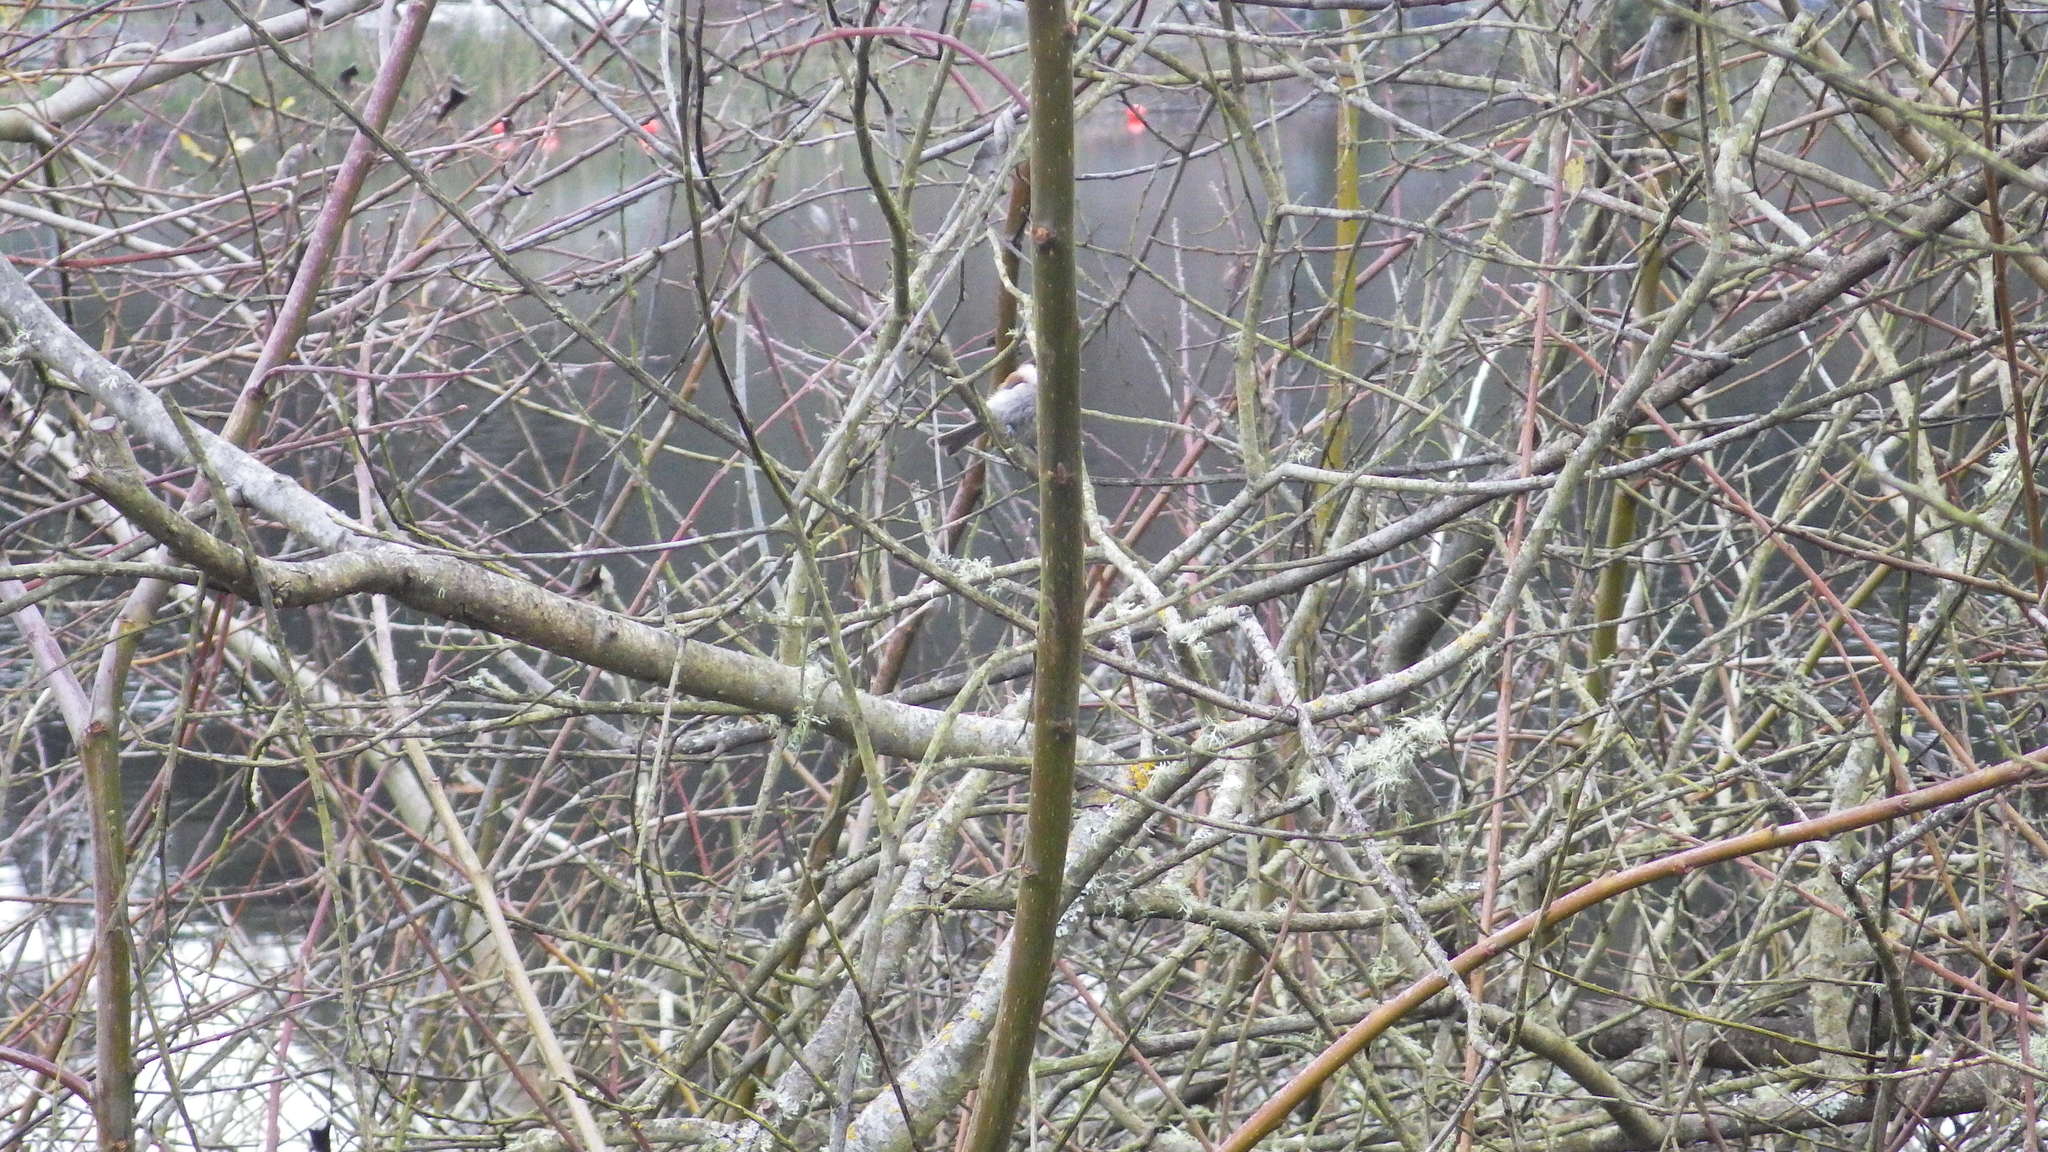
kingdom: Animalia
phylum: Chordata
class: Aves
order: Passeriformes
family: Paridae
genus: Poecile
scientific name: Poecile rufescens
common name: Chestnut-backed chickadee
